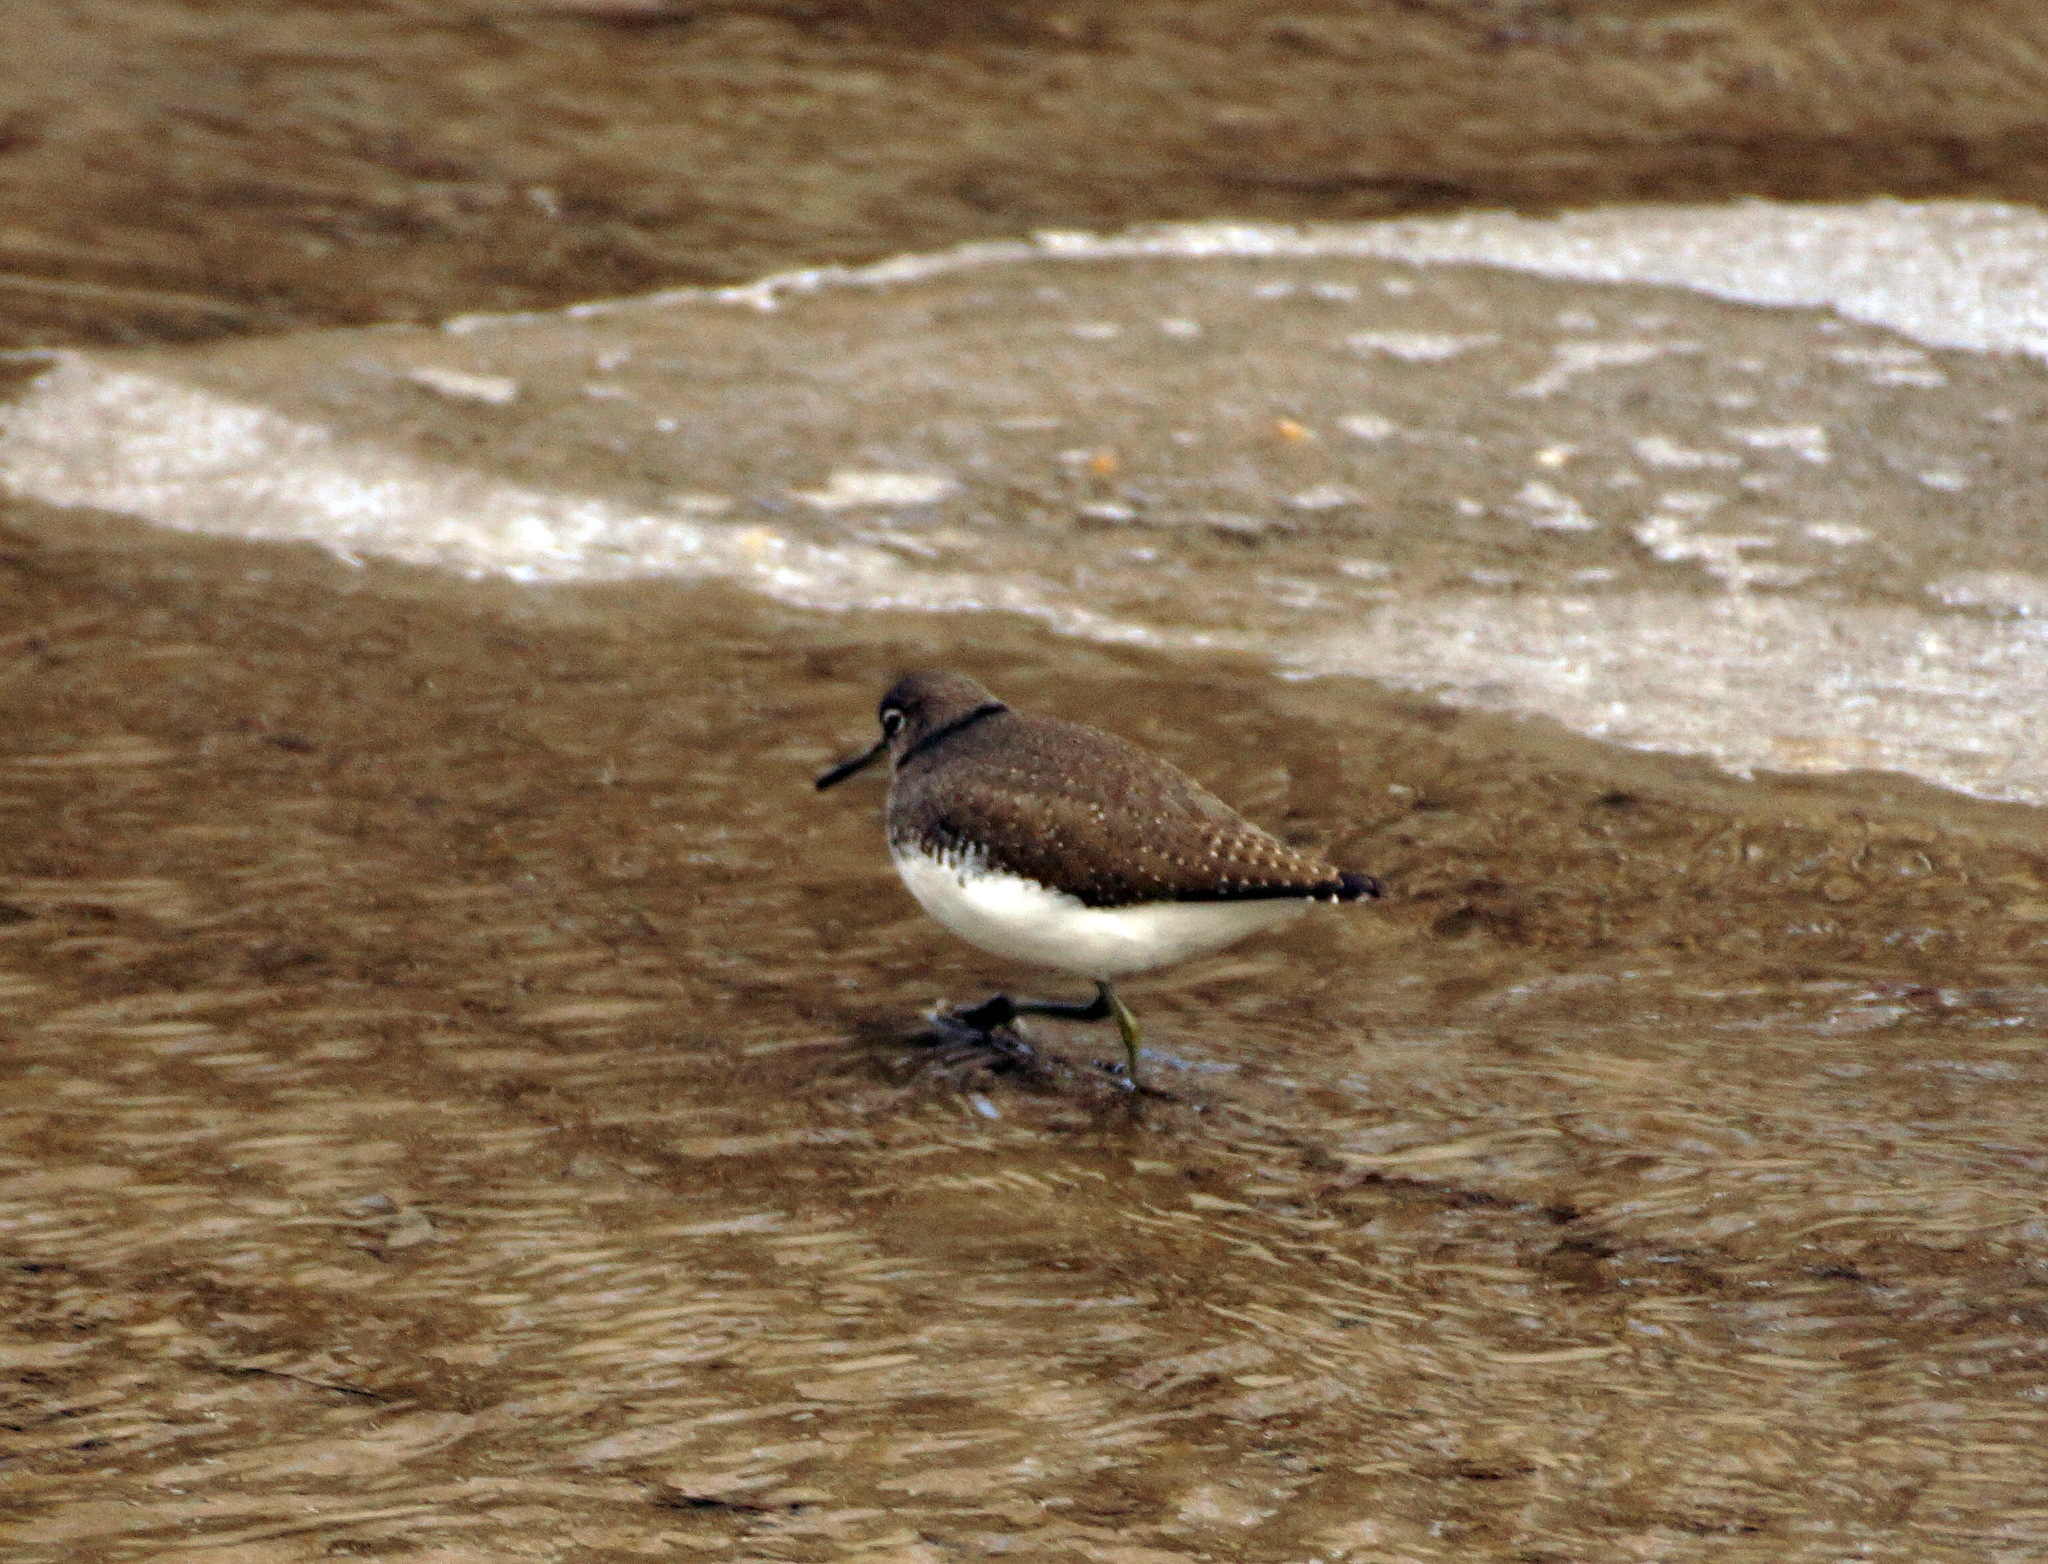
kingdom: Animalia
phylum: Chordata
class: Aves
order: Charadriiformes
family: Scolopacidae
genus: Tringa
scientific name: Tringa ochropus
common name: Green sandpiper
